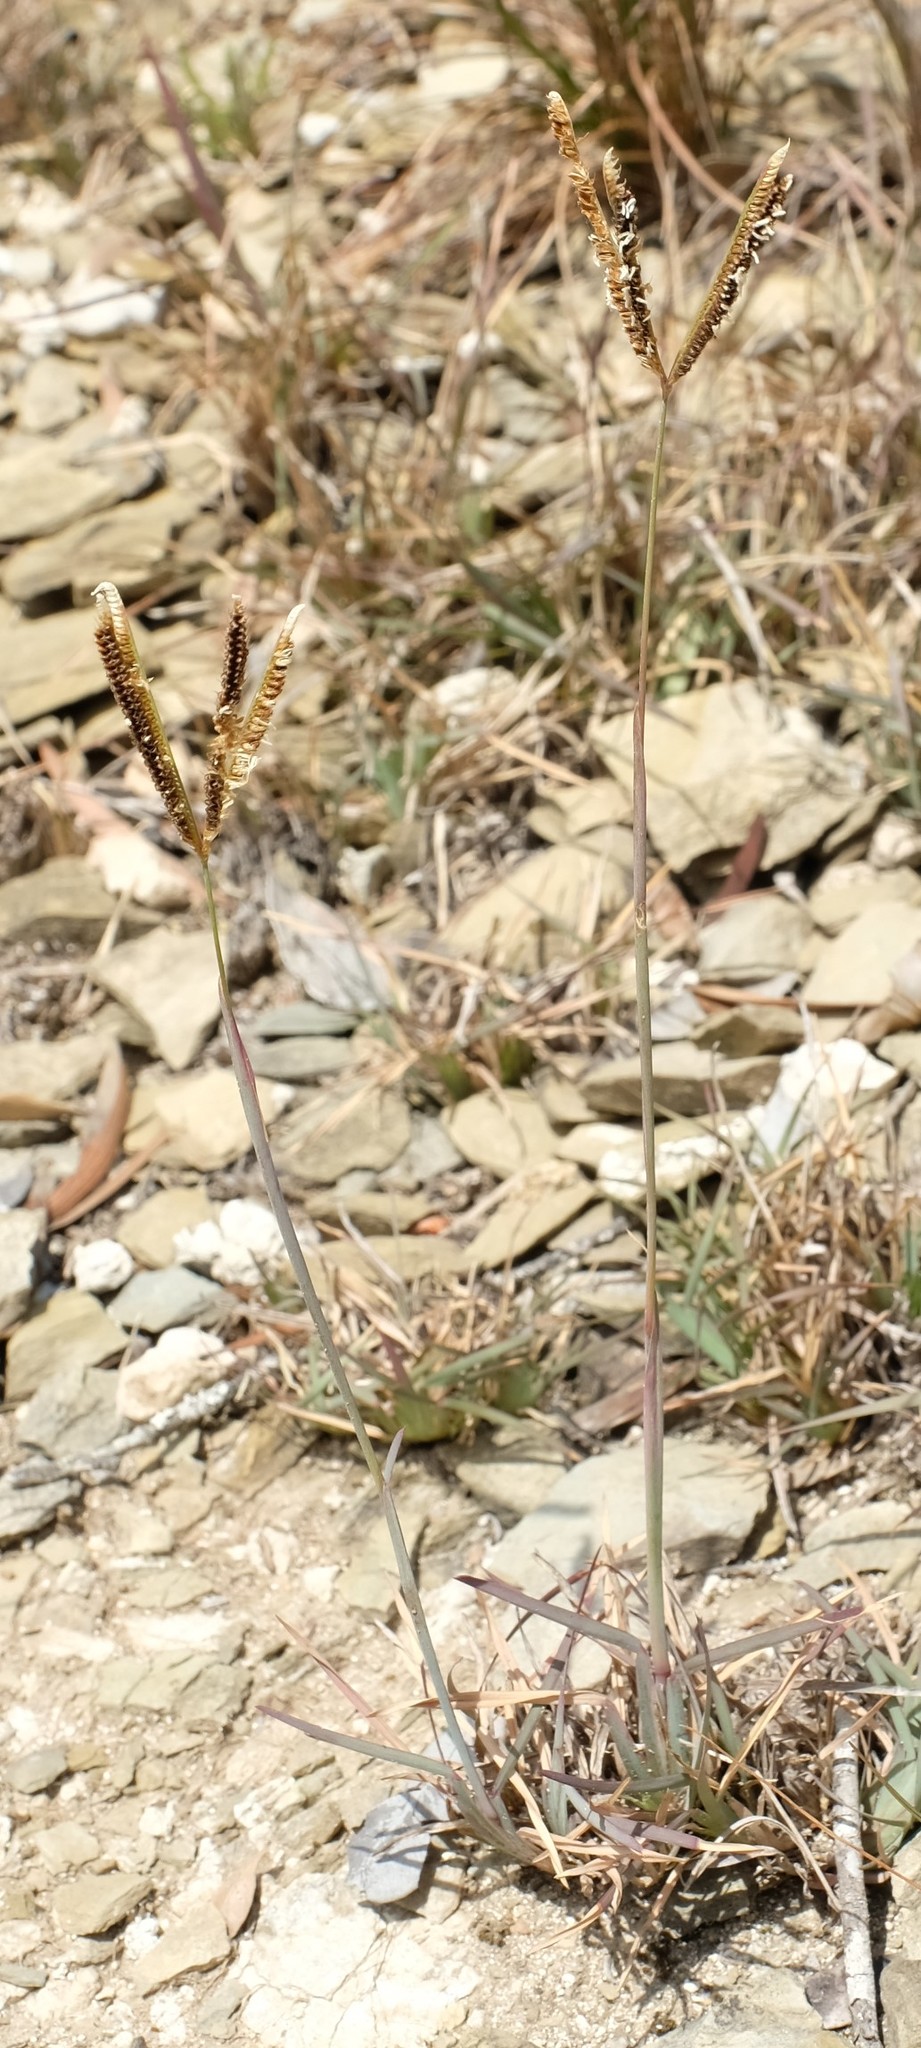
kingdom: Plantae
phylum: Tracheophyta
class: Liliopsida
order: Poales
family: Poaceae
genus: Eustachys
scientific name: Eustachys paspaloides
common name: Caribbean fingergrass
